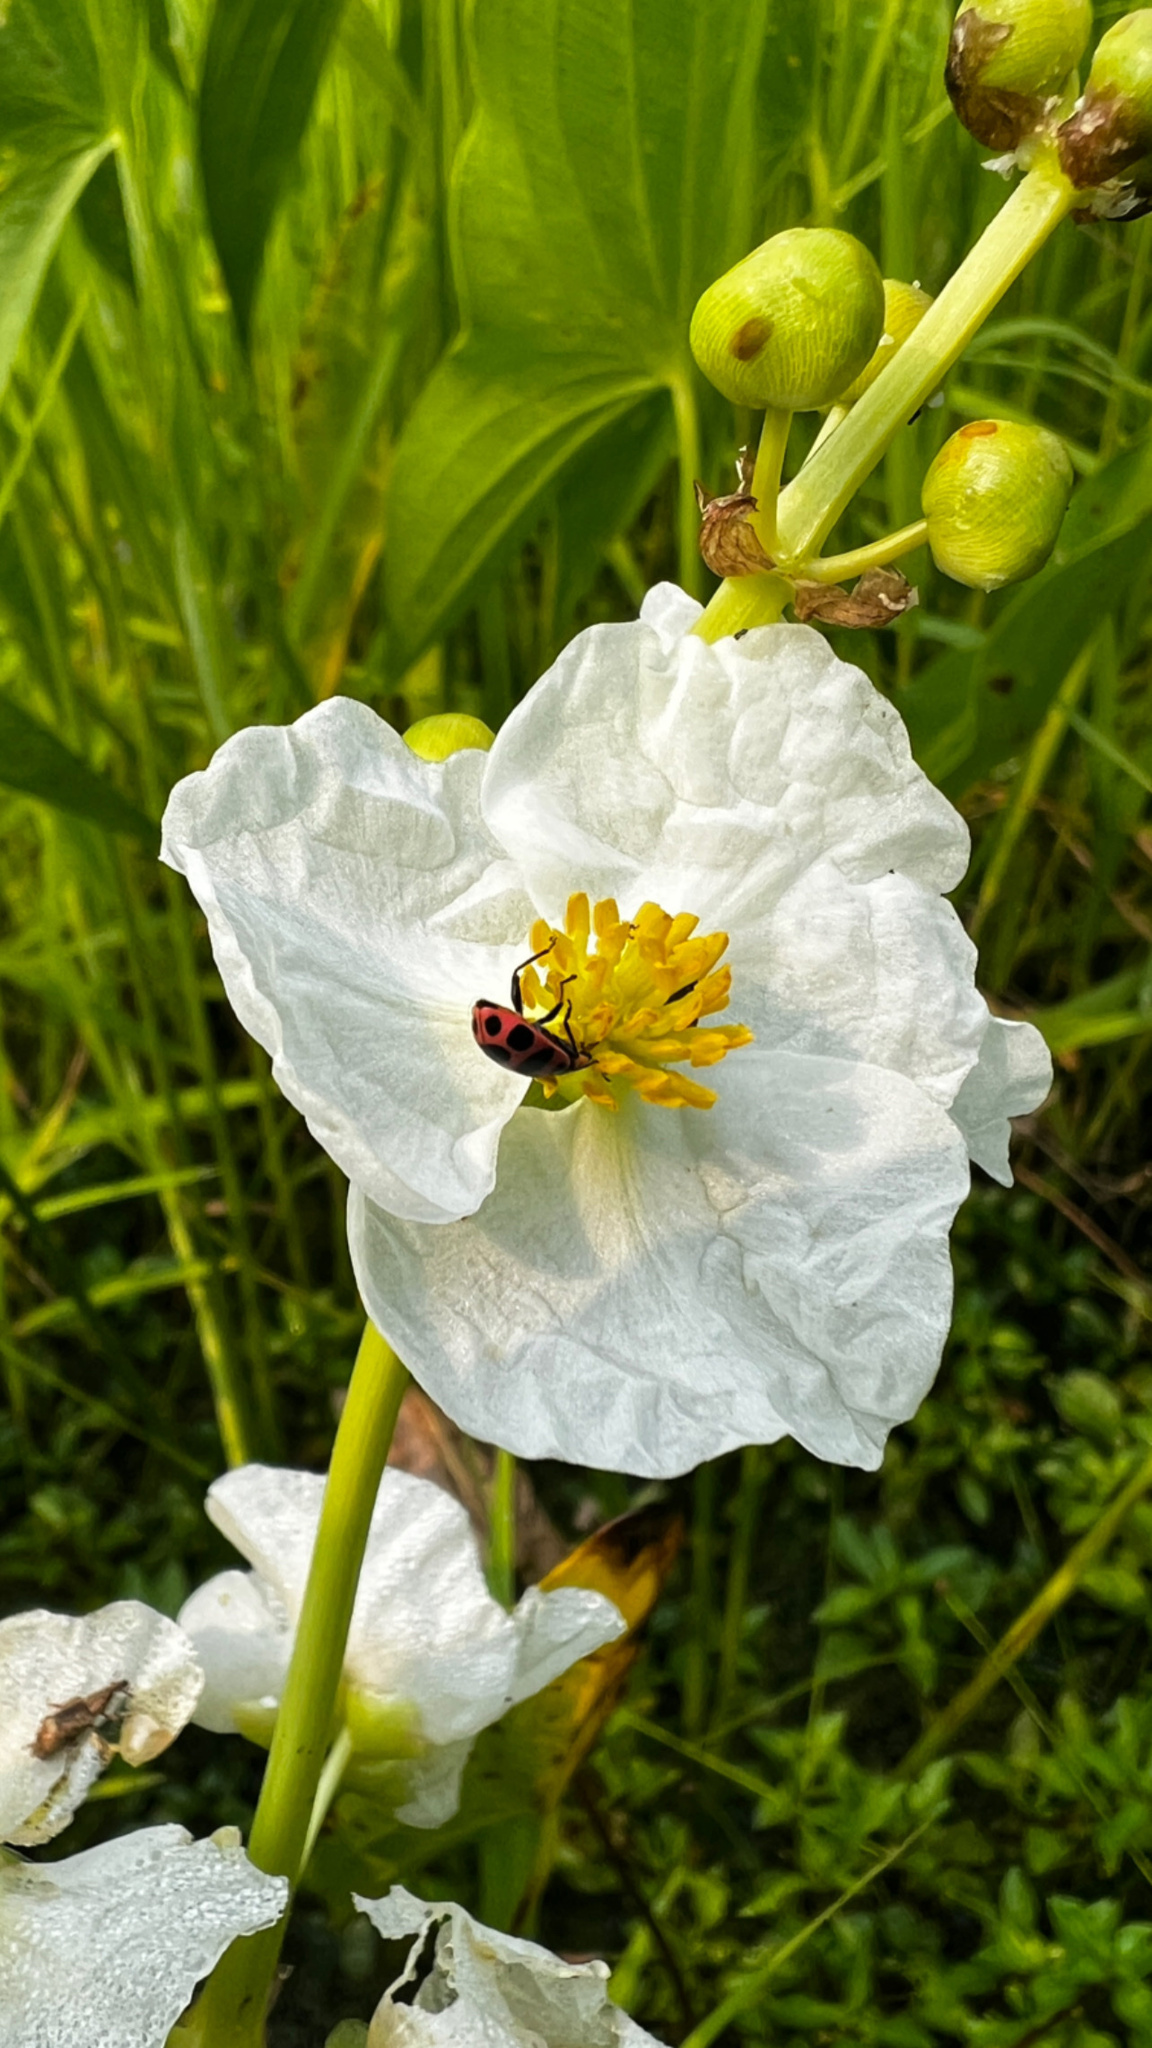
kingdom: Animalia
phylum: Arthropoda
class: Insecta
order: Coleoptera
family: Coccinellidae
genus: Coleomegilla
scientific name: Coleomegilla maculata
